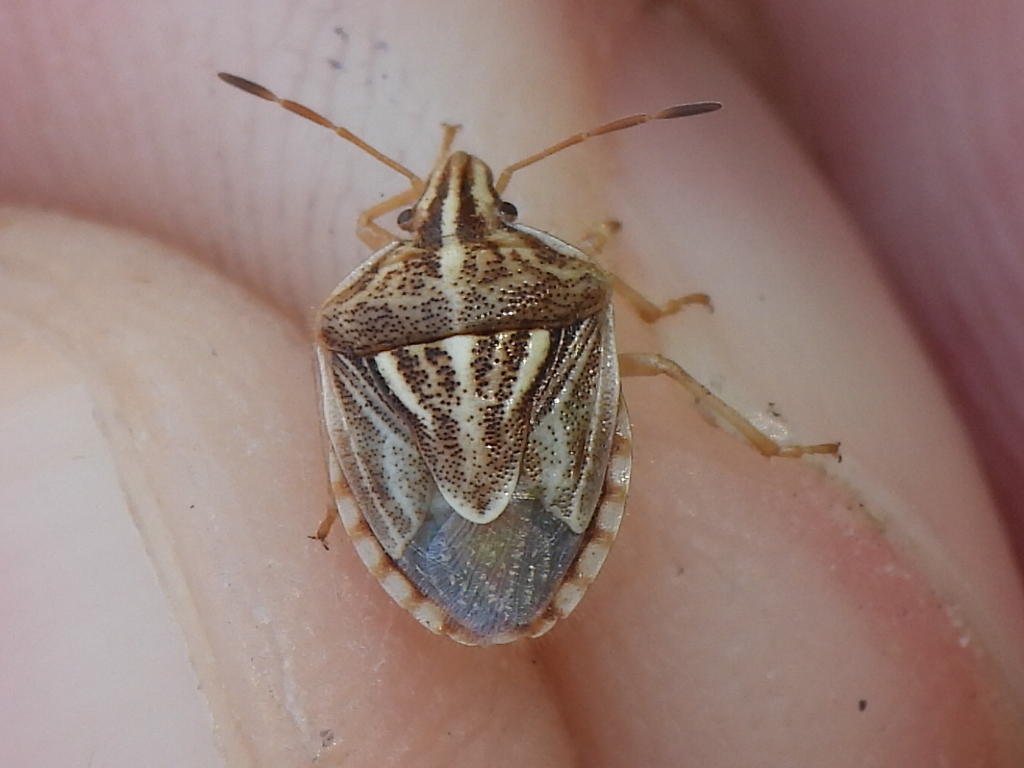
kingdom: Animalia
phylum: Arthropoda
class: Insecta
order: Hemiptera
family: Pentatomidae
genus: Trichopepla
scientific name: Trichopepla semivittata
